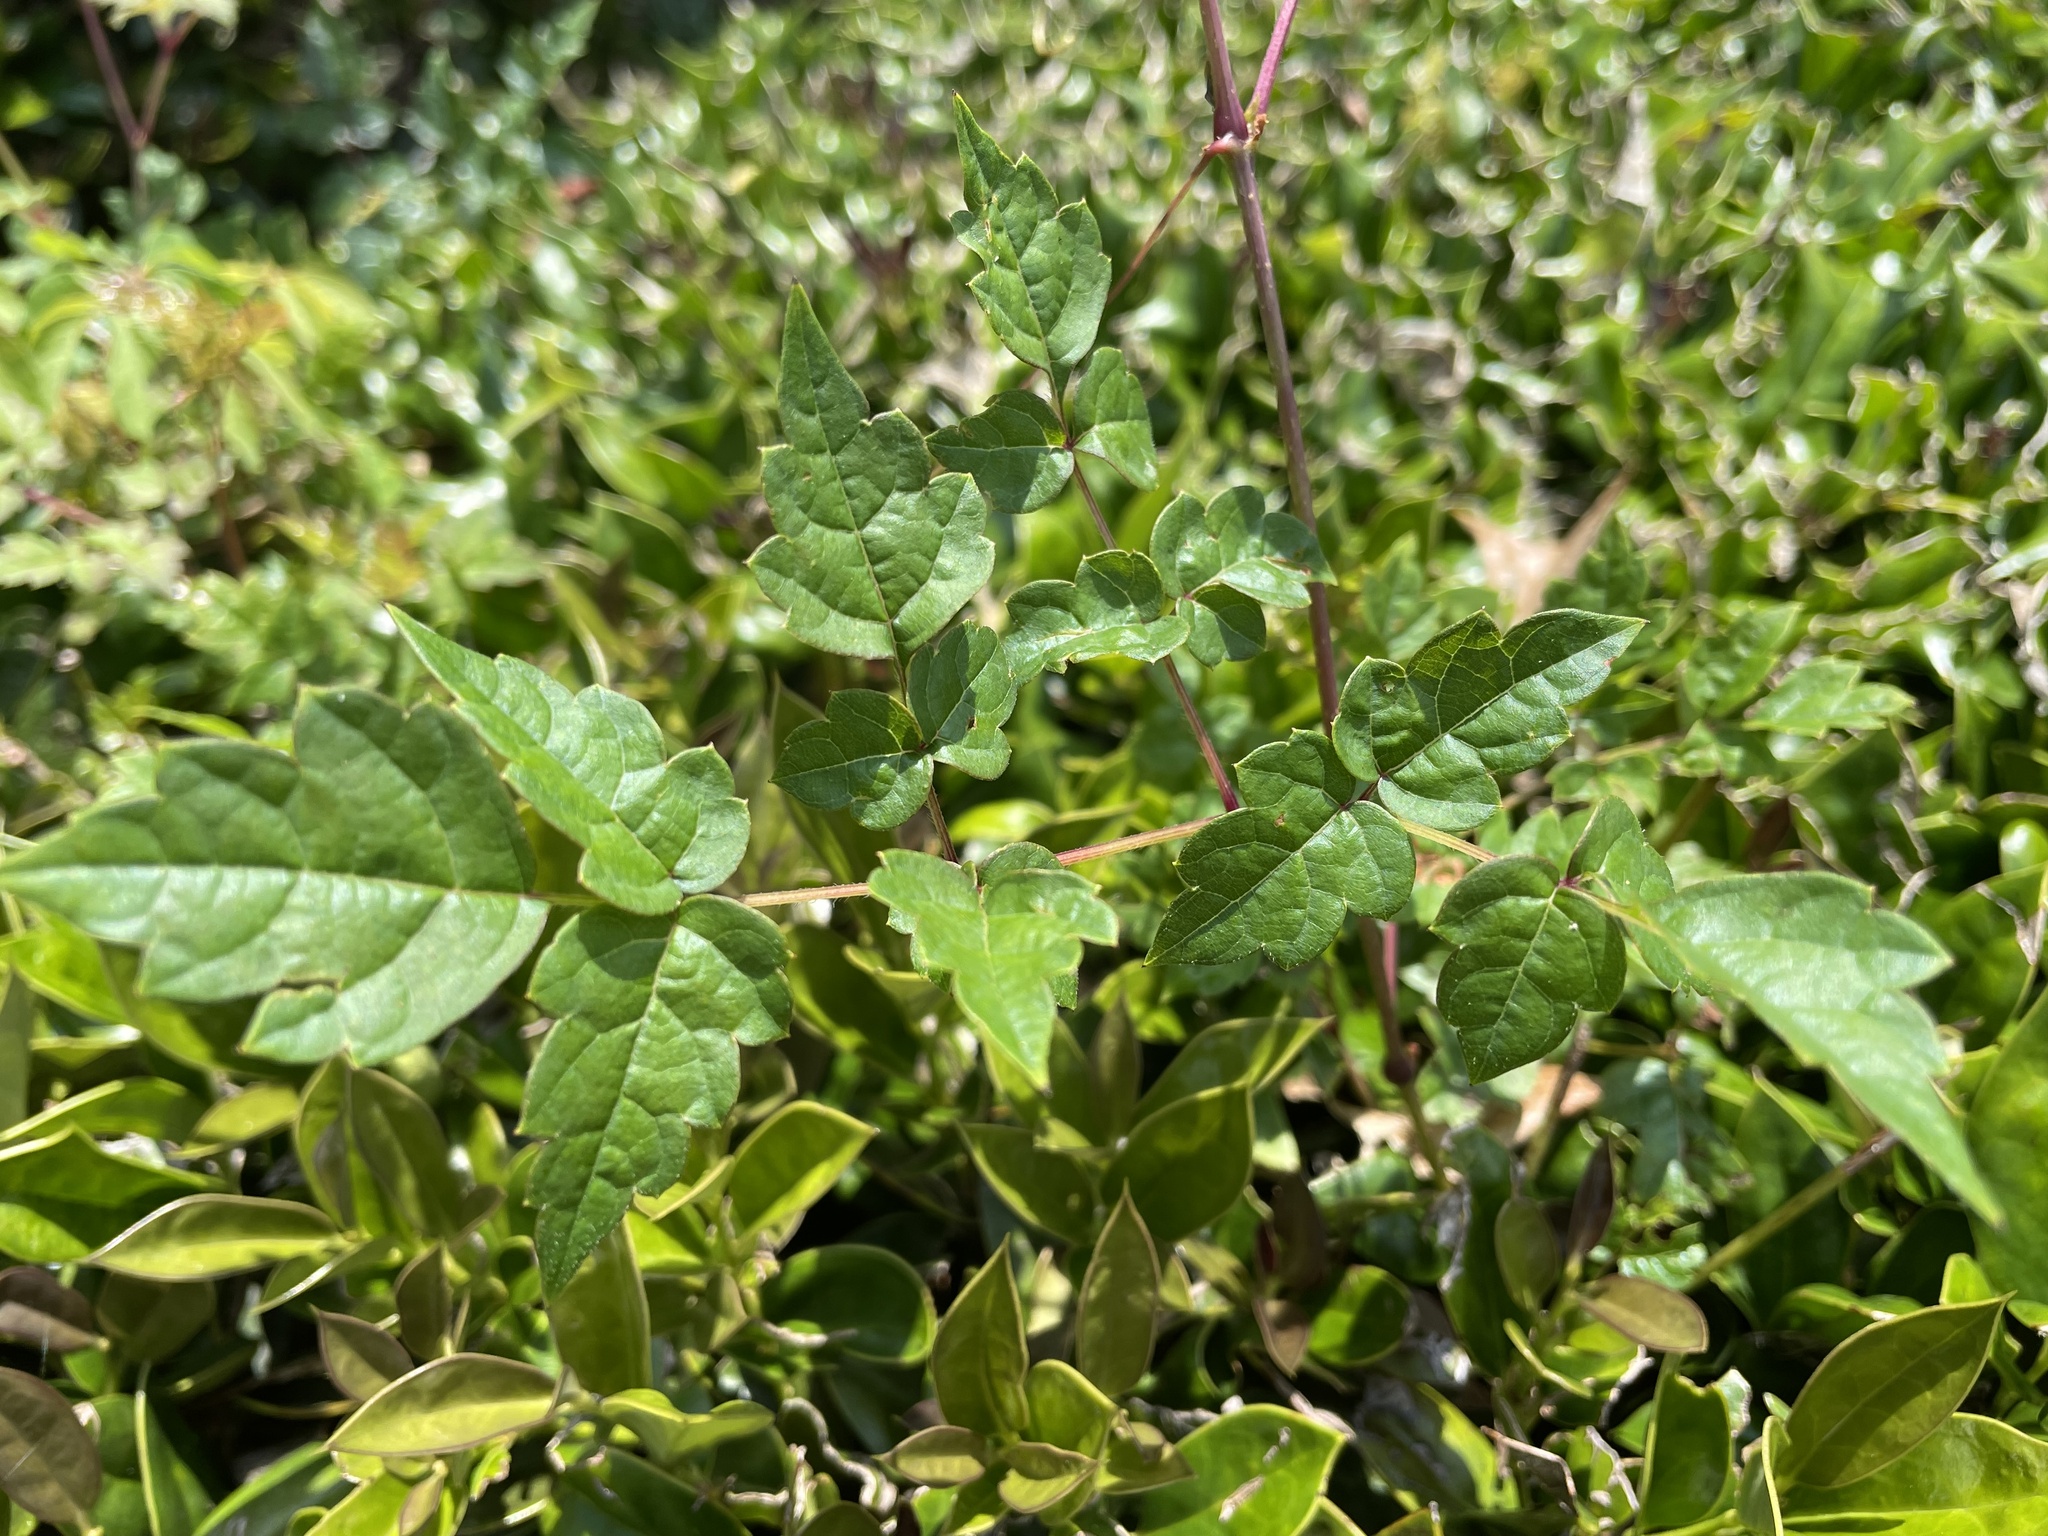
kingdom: Plantae
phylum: Tracheophyta
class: Magnoliopsida
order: Vitales
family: Vitaceae
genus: Nekemias
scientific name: Nekemias arborea
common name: Peppervine
